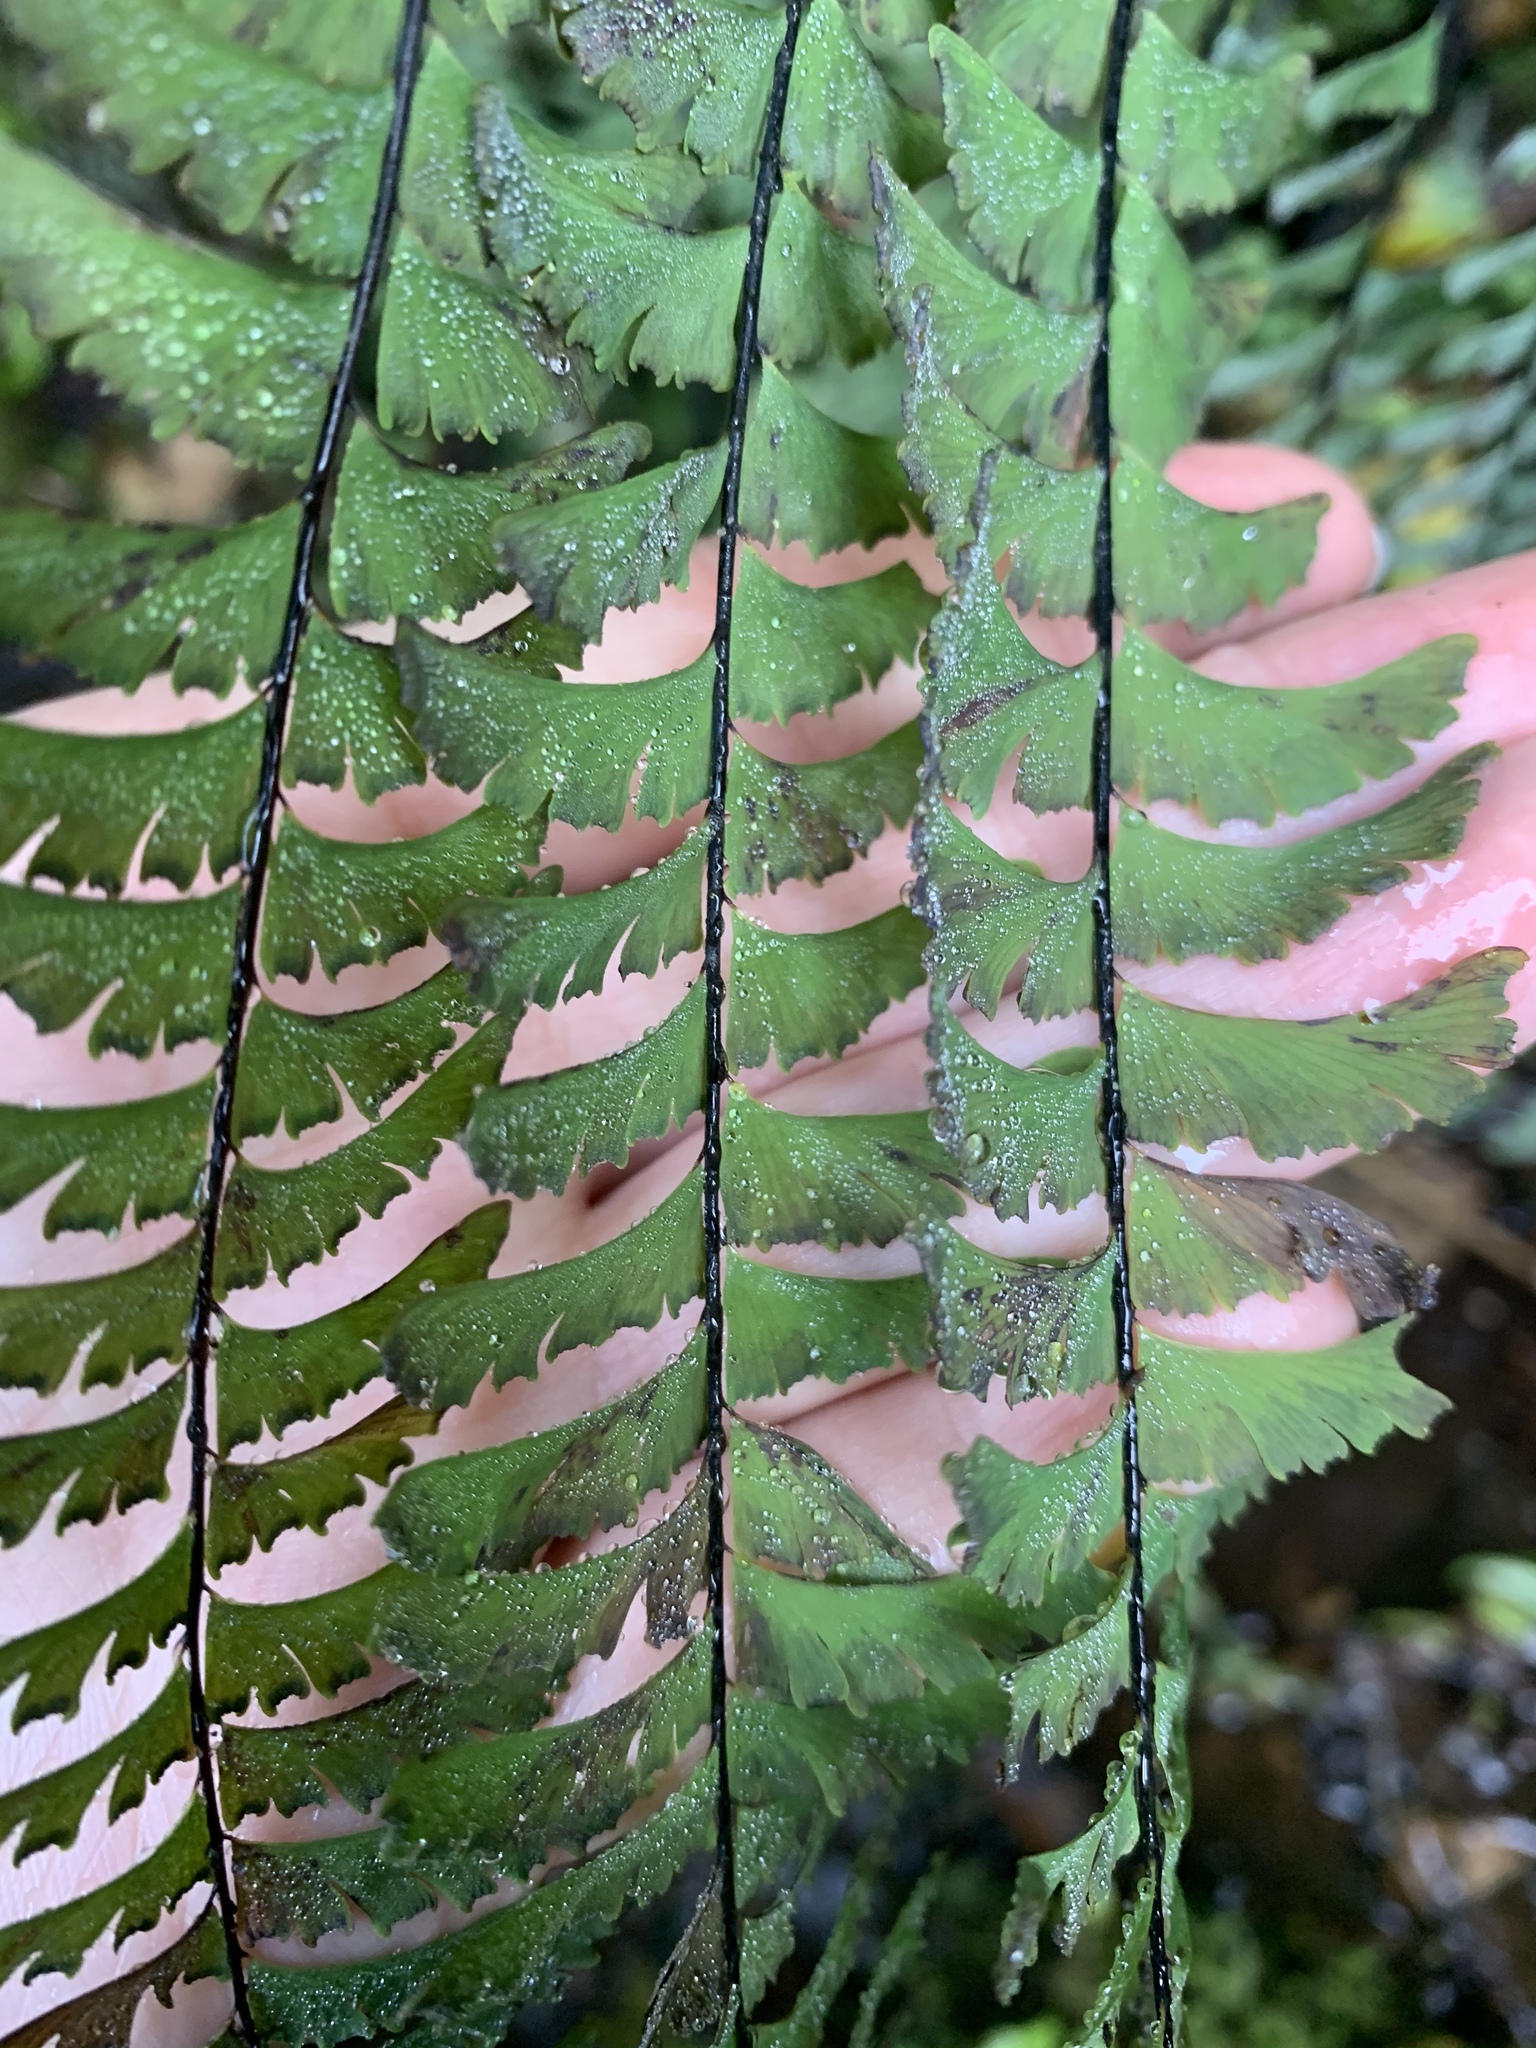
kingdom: Plantae
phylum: Tracheophyta
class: Polypodiopsida
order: Polypodiales
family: Pteridaceae
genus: Adiantum
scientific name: Adiantum aleuticum
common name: Aleutian maidenhair fern
